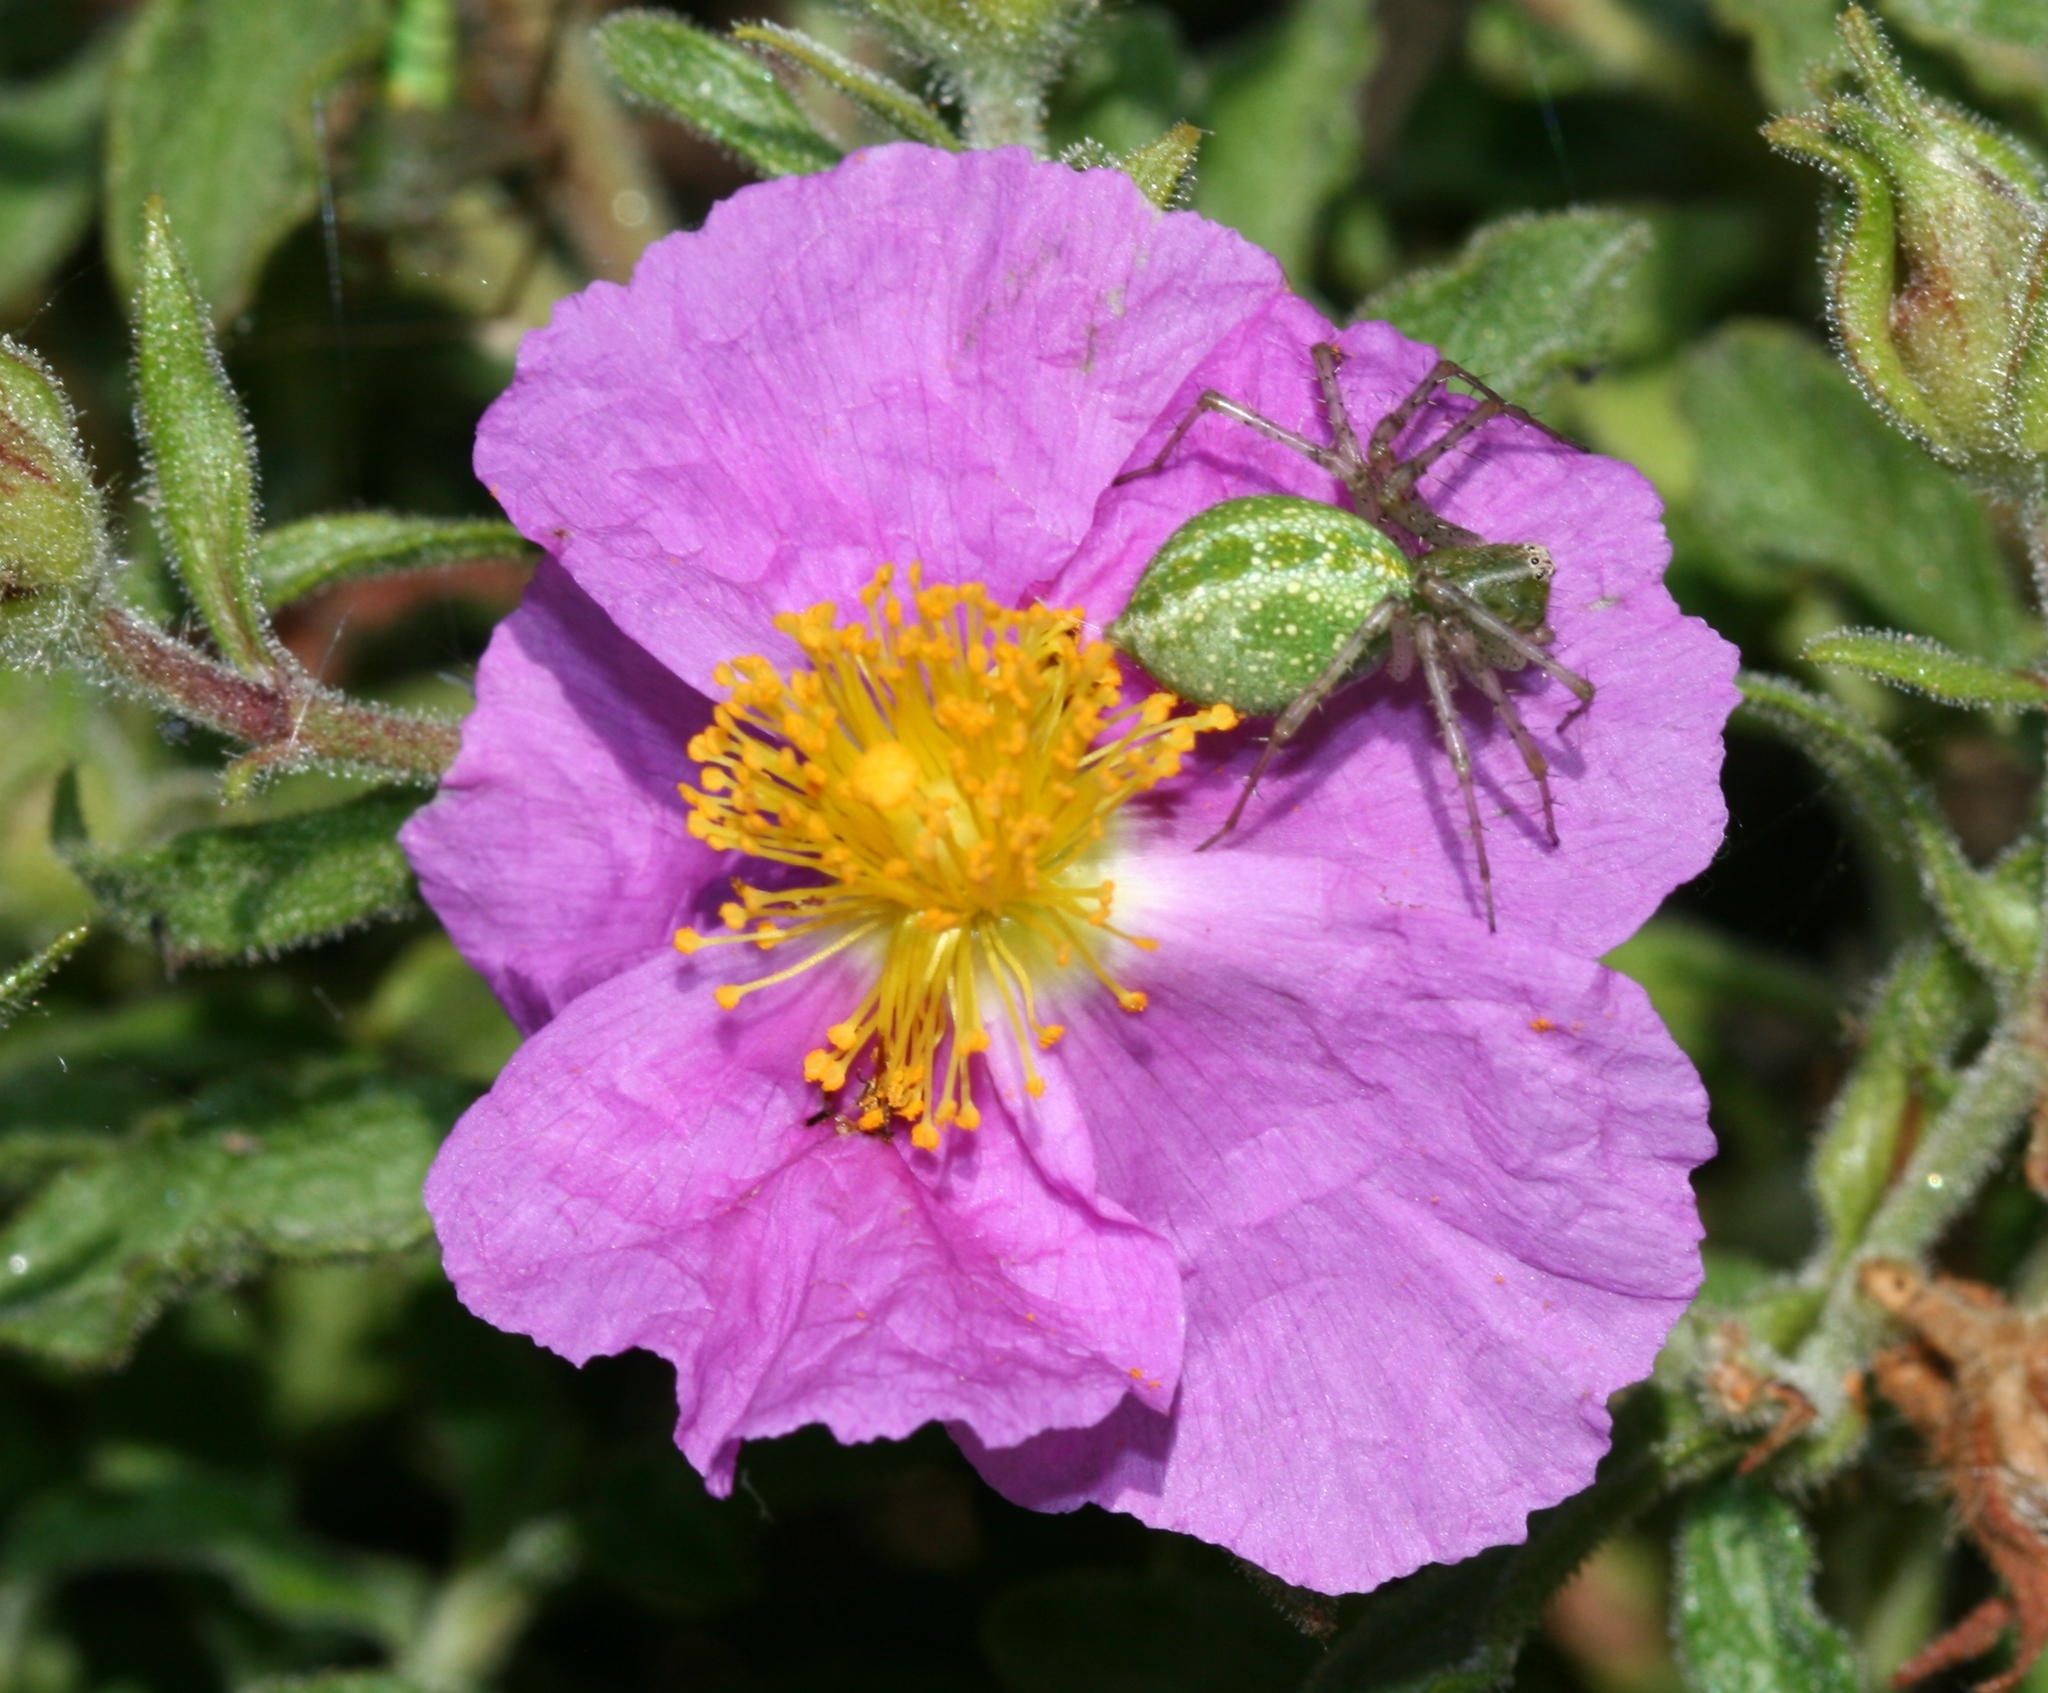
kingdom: Plantae
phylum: Tracheophyta
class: Magnoliopsida
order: Malvales
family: Cistaceae
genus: Cistus
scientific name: Cistus creticus
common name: Cretan rockrose
